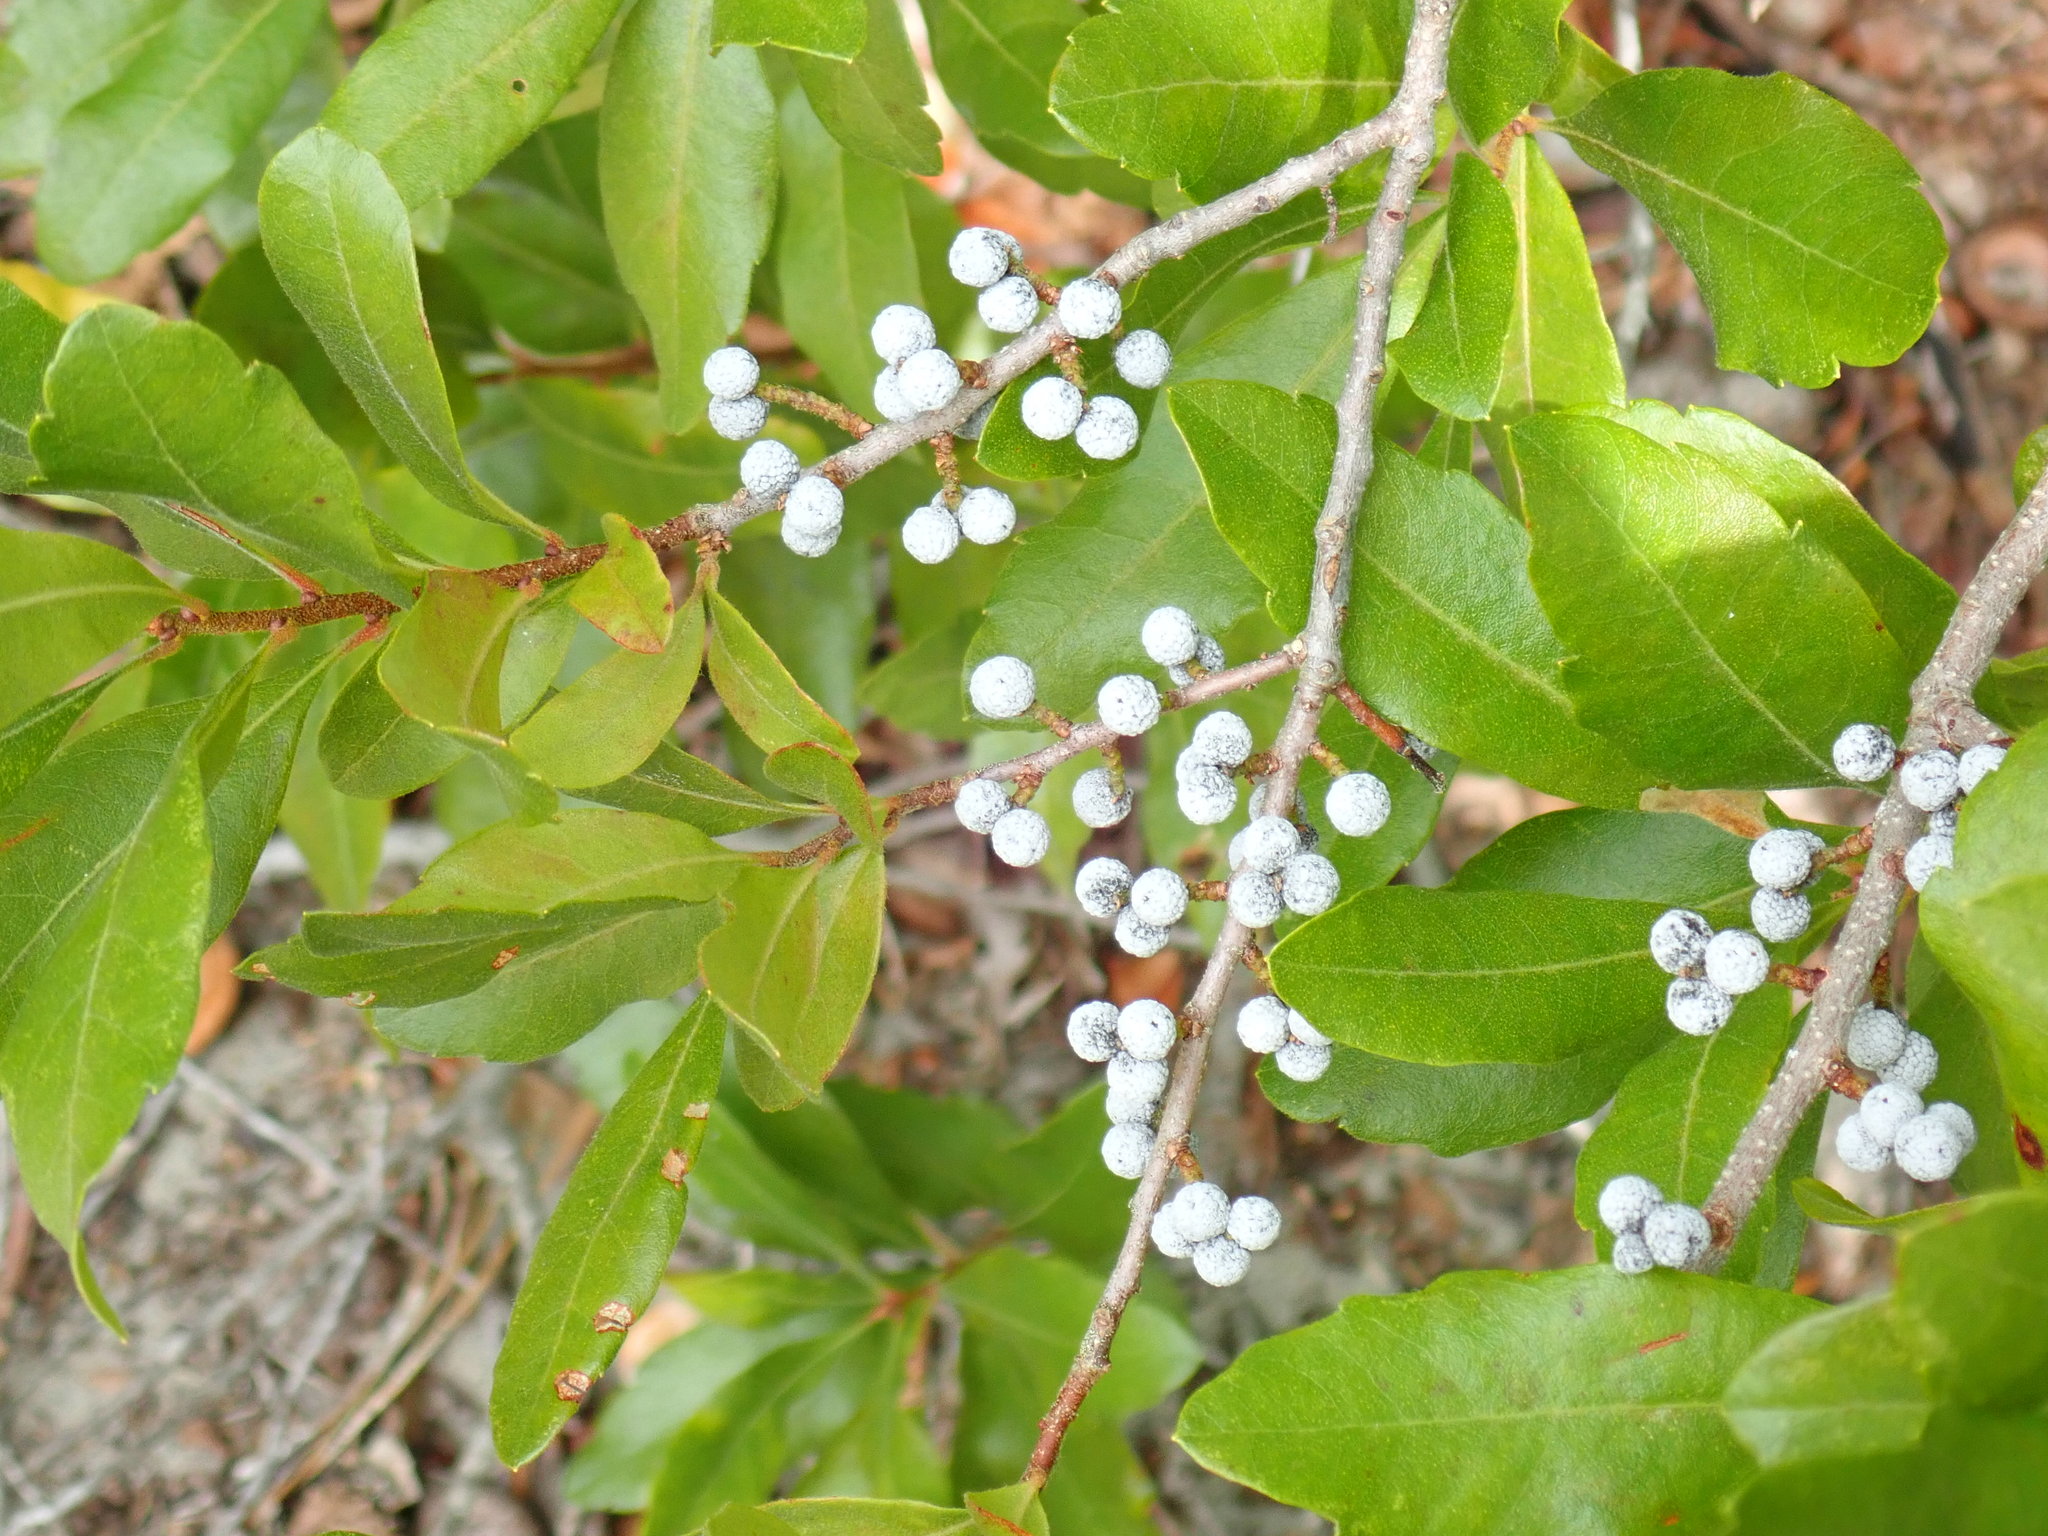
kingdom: Plantae
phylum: Tracheophyta
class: Magnoliopsida
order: Fagales
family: Myricaceae
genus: Morella
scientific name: Morella pensylvanica
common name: Northern bayberry
